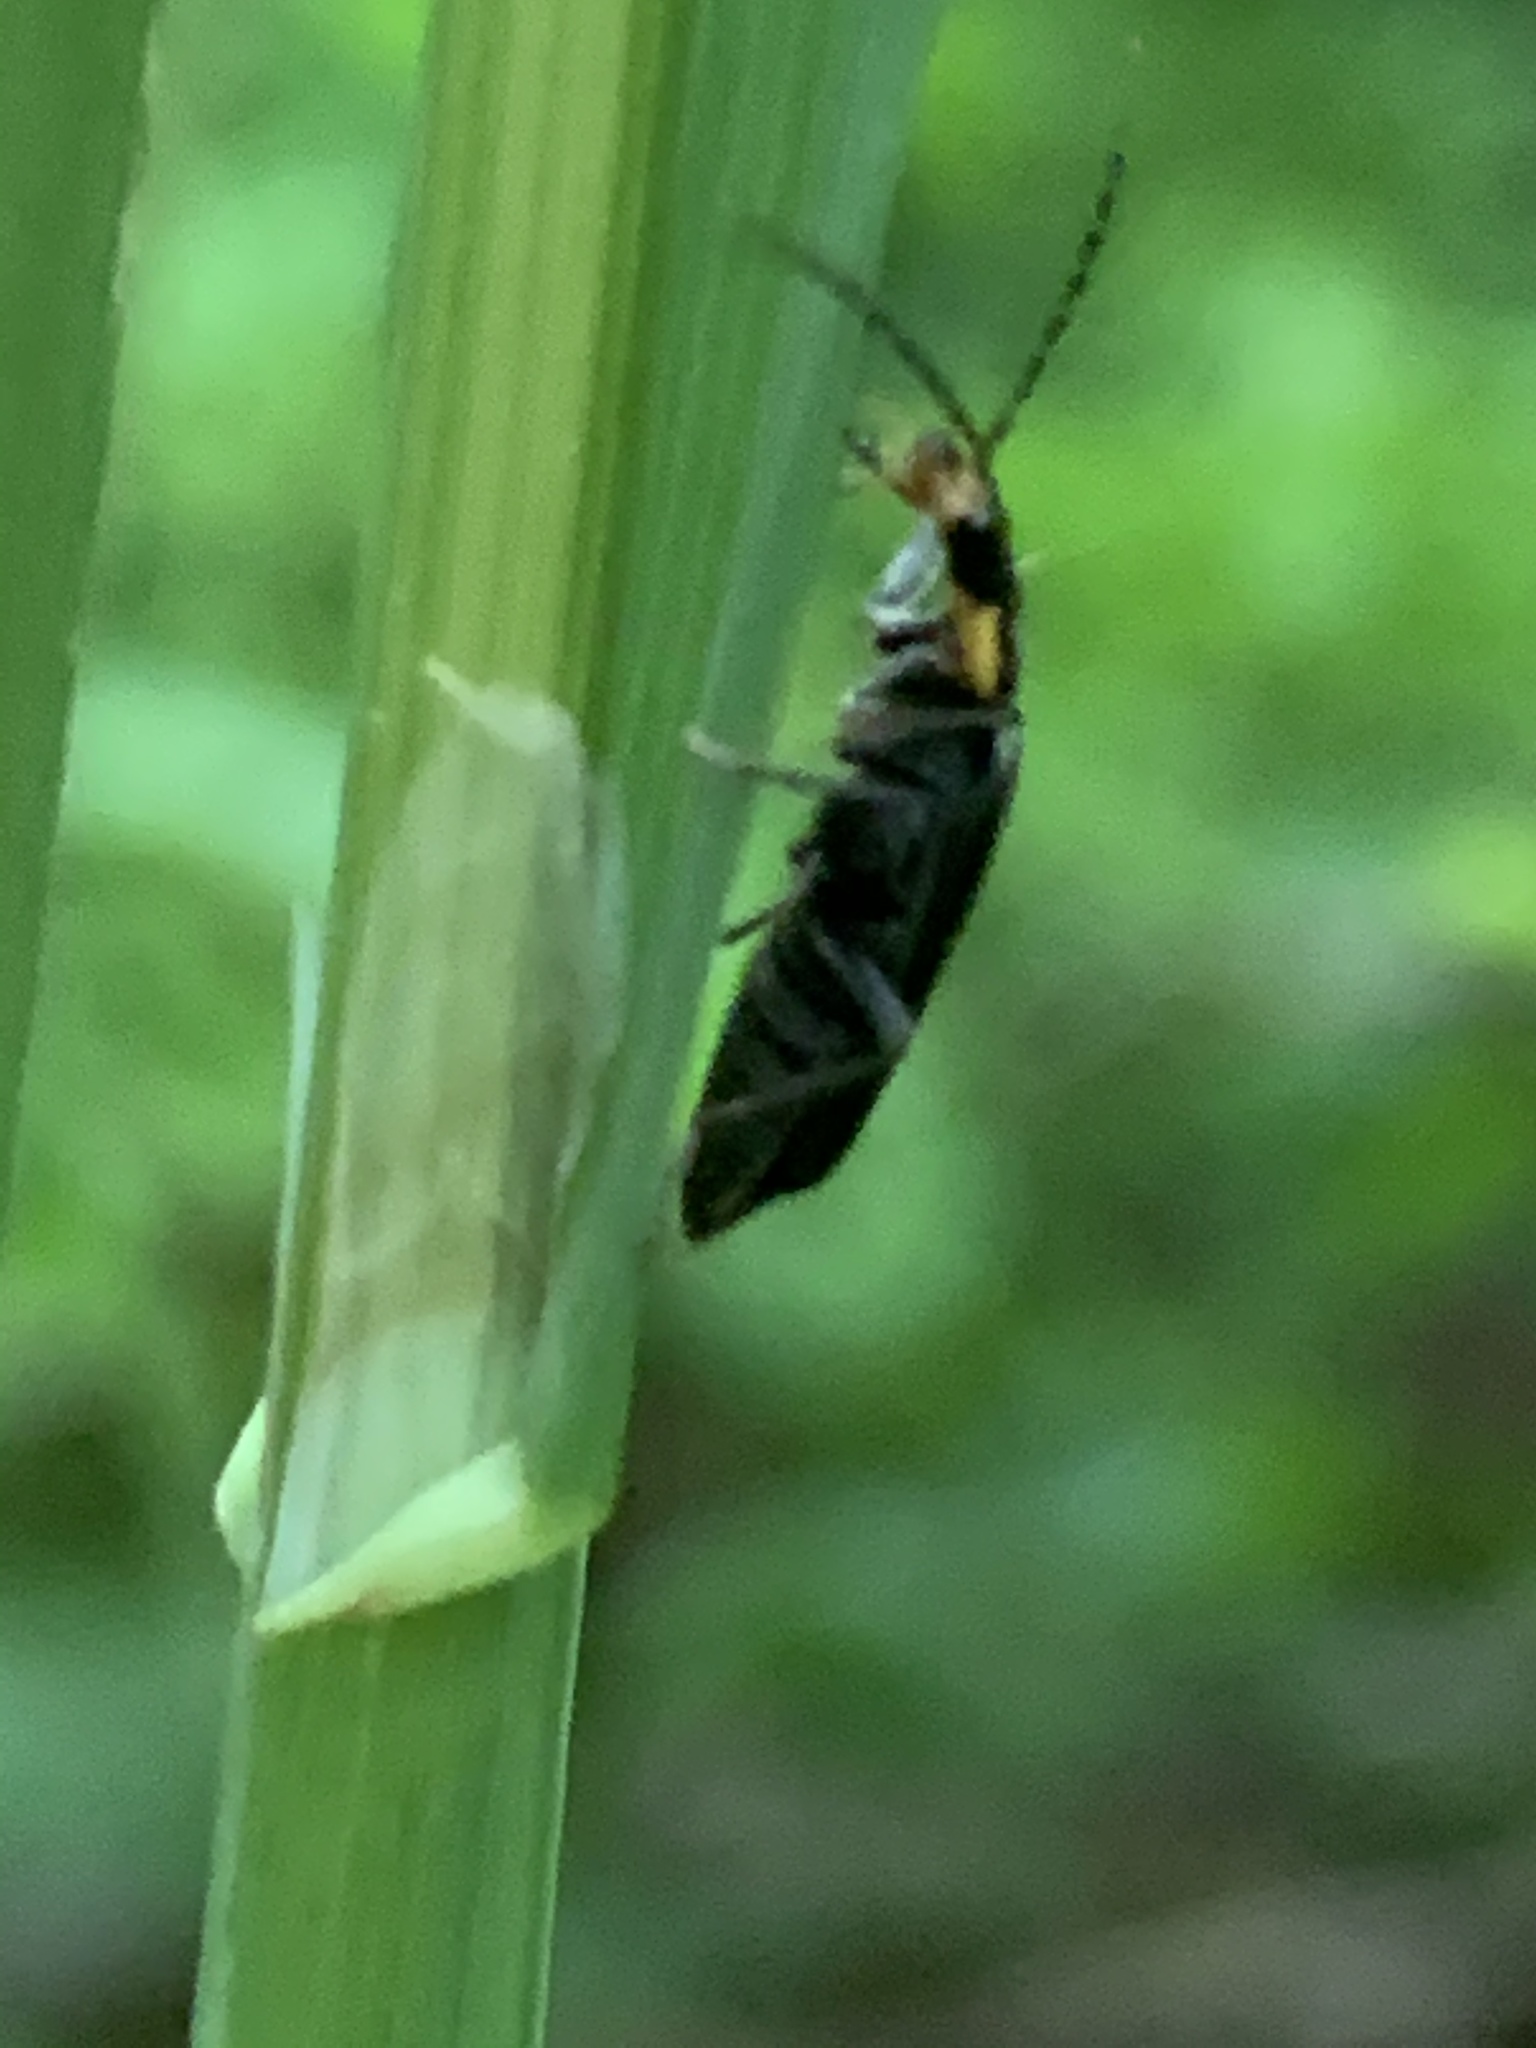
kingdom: Animalia
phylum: Arthropoda
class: Insecta
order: Coleoptera
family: Cantharidae
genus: Podabrus
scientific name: Podabrus rugosulus
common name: Wrinkled soldier beetle
